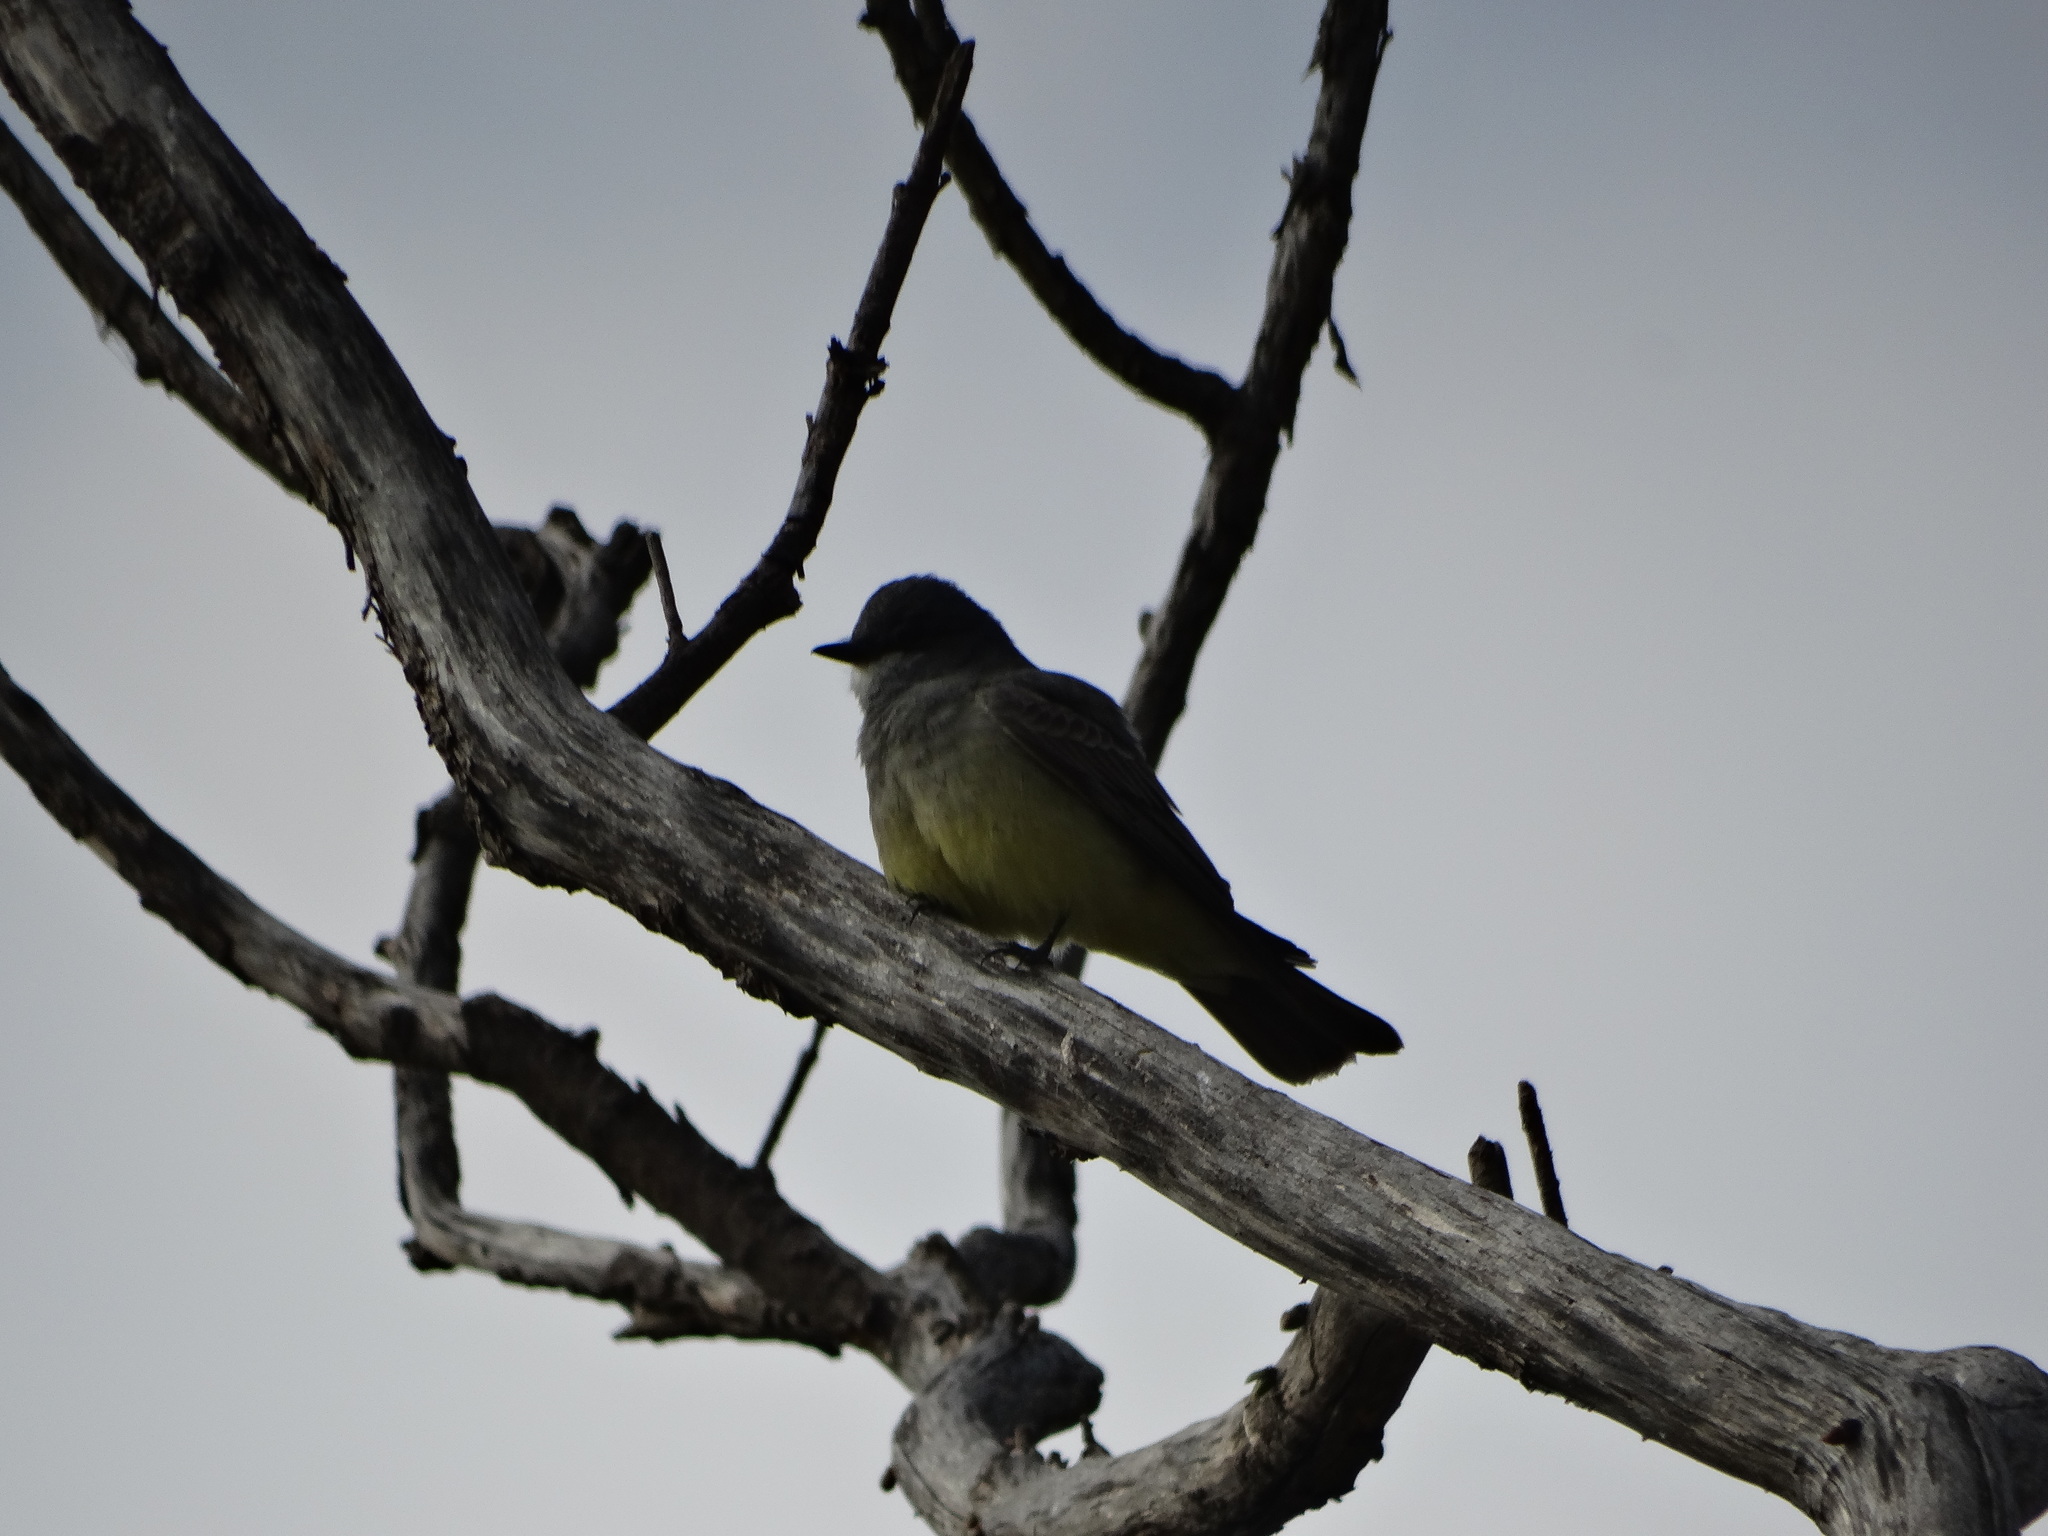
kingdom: Animalia
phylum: Chordata
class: Aves
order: Passeriformes
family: Tyrannidae
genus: Tyrannus
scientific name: Tyrannus vociferans
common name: Cassin's kingbird
